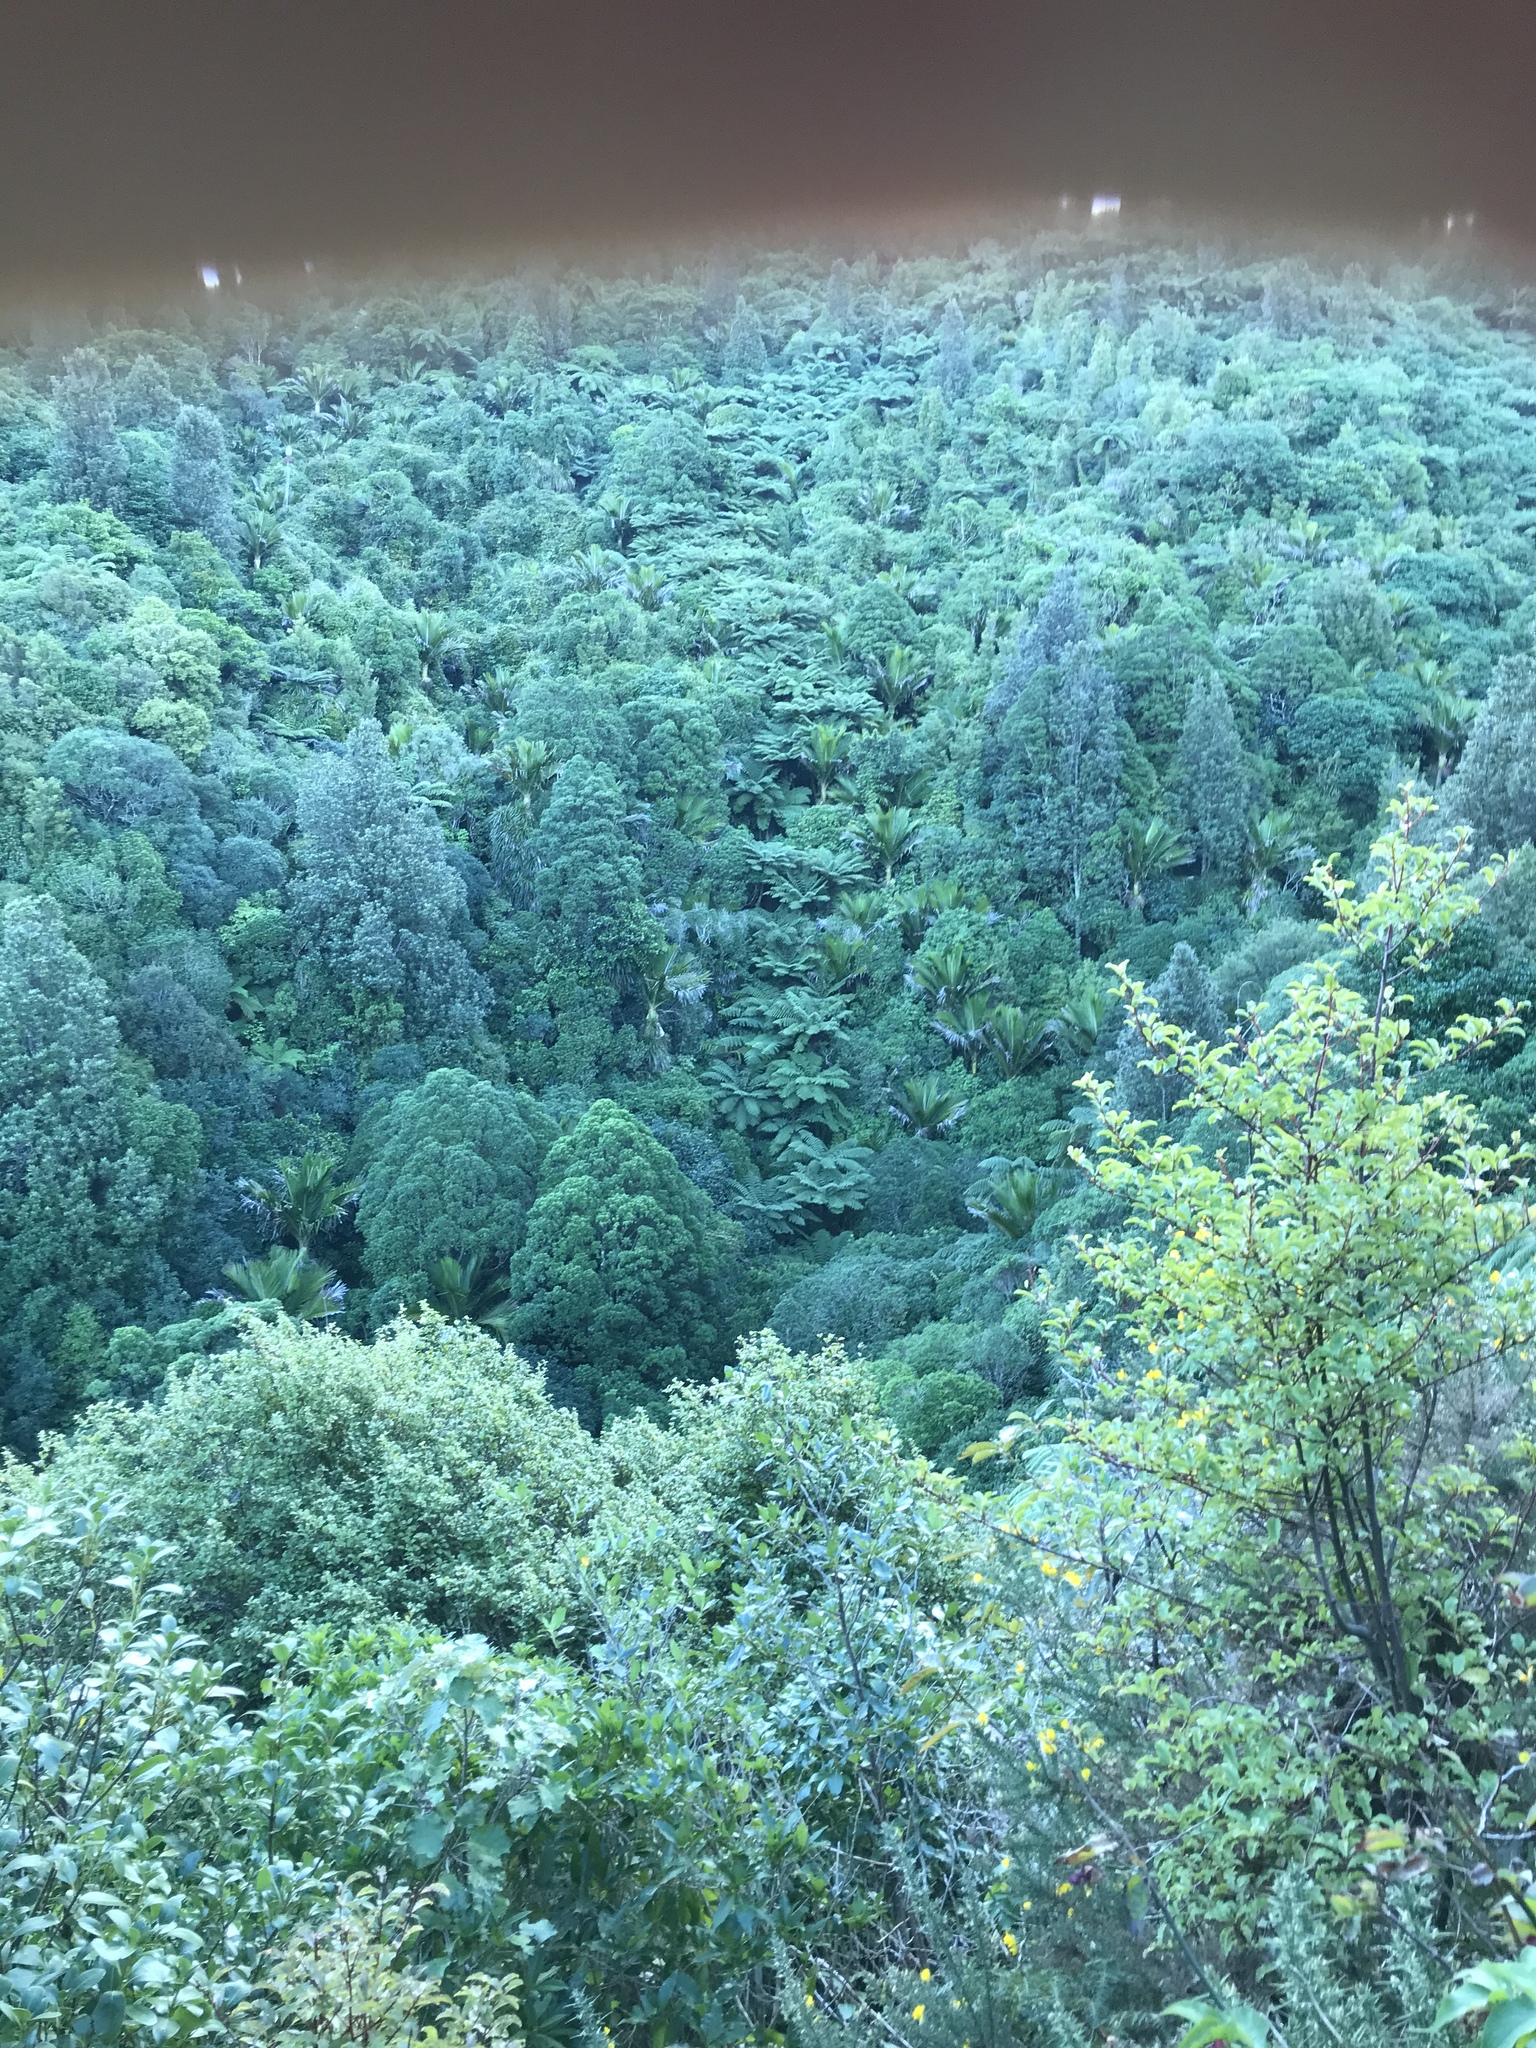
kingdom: Plantae
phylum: Tracheophyta
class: Liliopsida
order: Arecales
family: Arecaceae
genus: Rhopalostylis
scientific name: Rhopalostylis sapida
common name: Feather-duster palm
